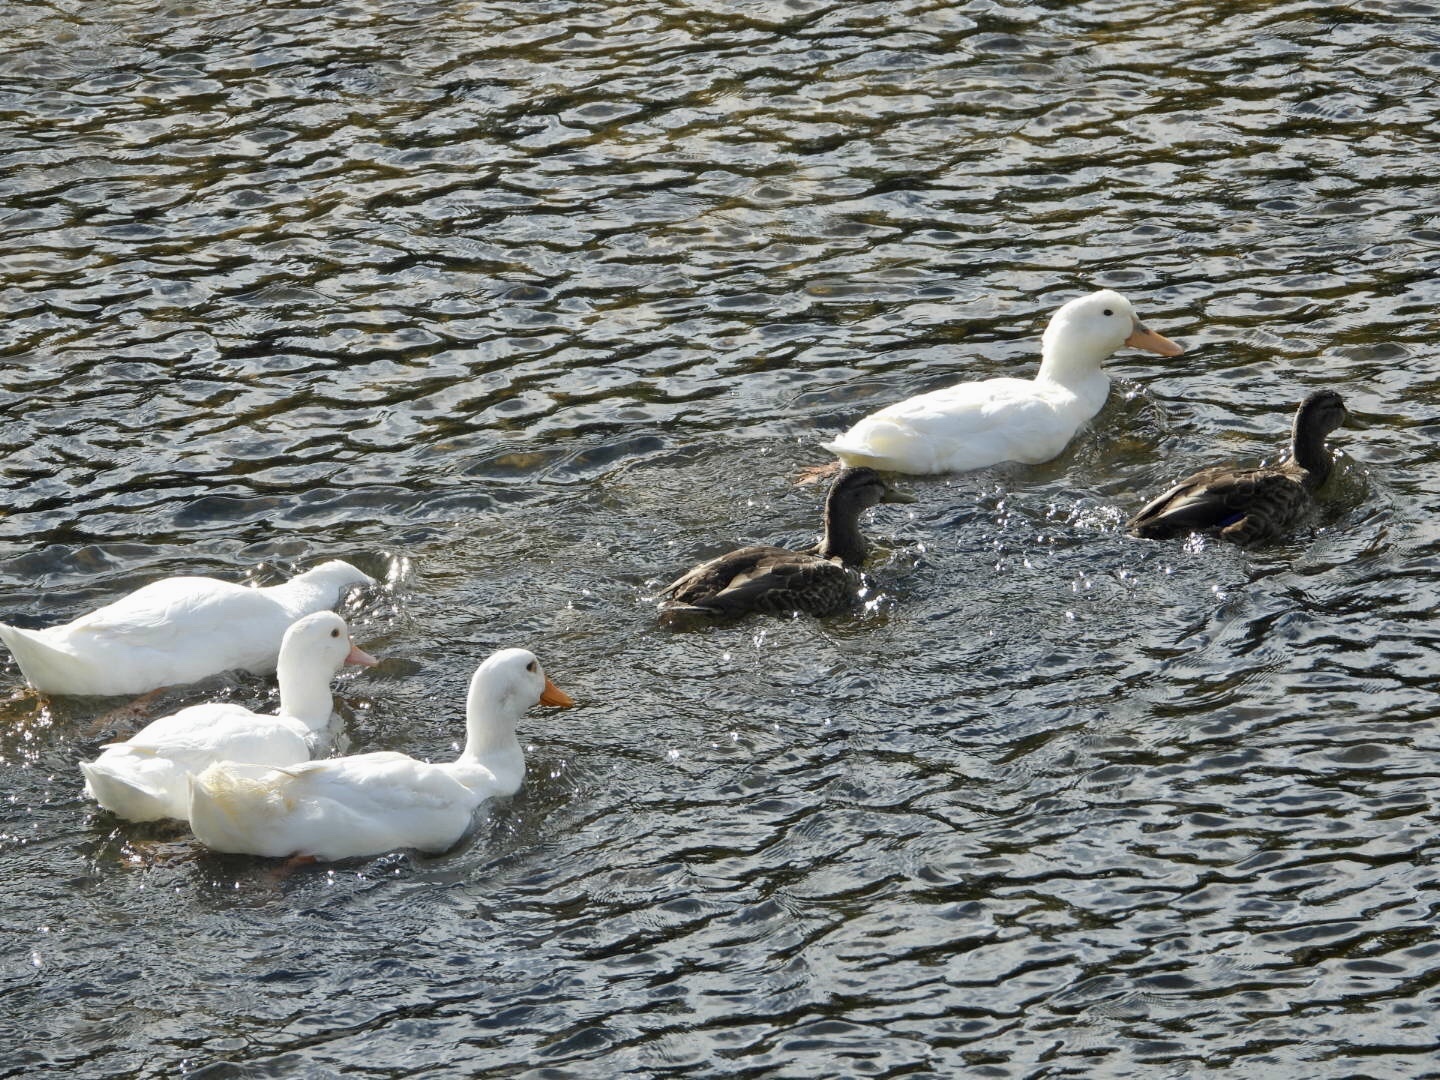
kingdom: Animalia
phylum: Chordata
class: Aves
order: Anseriformes
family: Anatidae
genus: Anas
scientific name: Anas platyrhynchos
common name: Mallard
